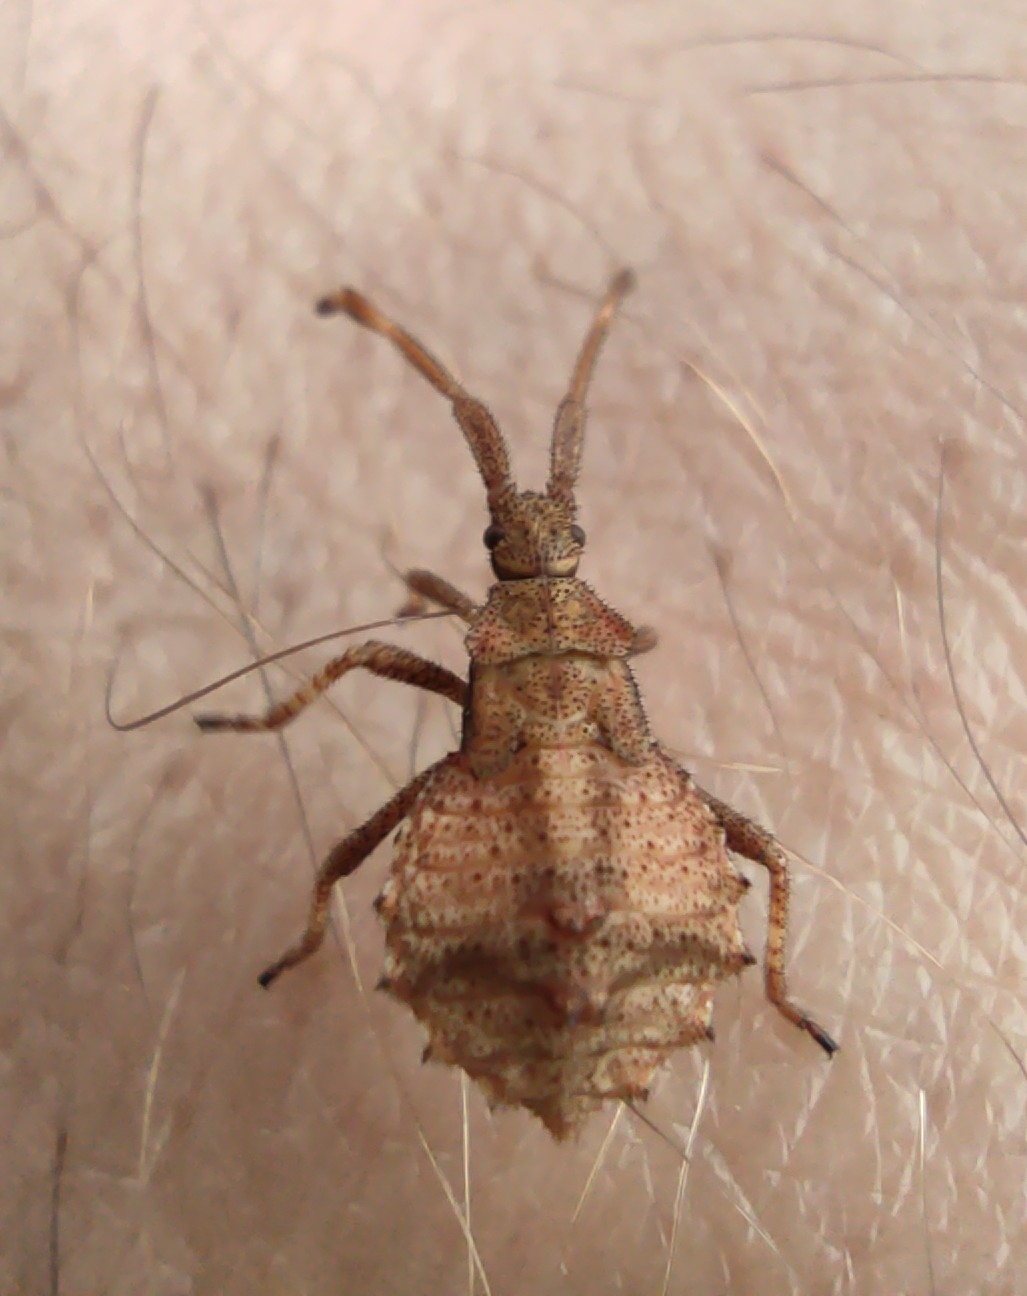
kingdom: Animalia
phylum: Arthropoda
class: Insecta
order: Hemiptera
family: Coreidae
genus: Coreus
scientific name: Coreus marginatus
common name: Dock bug
